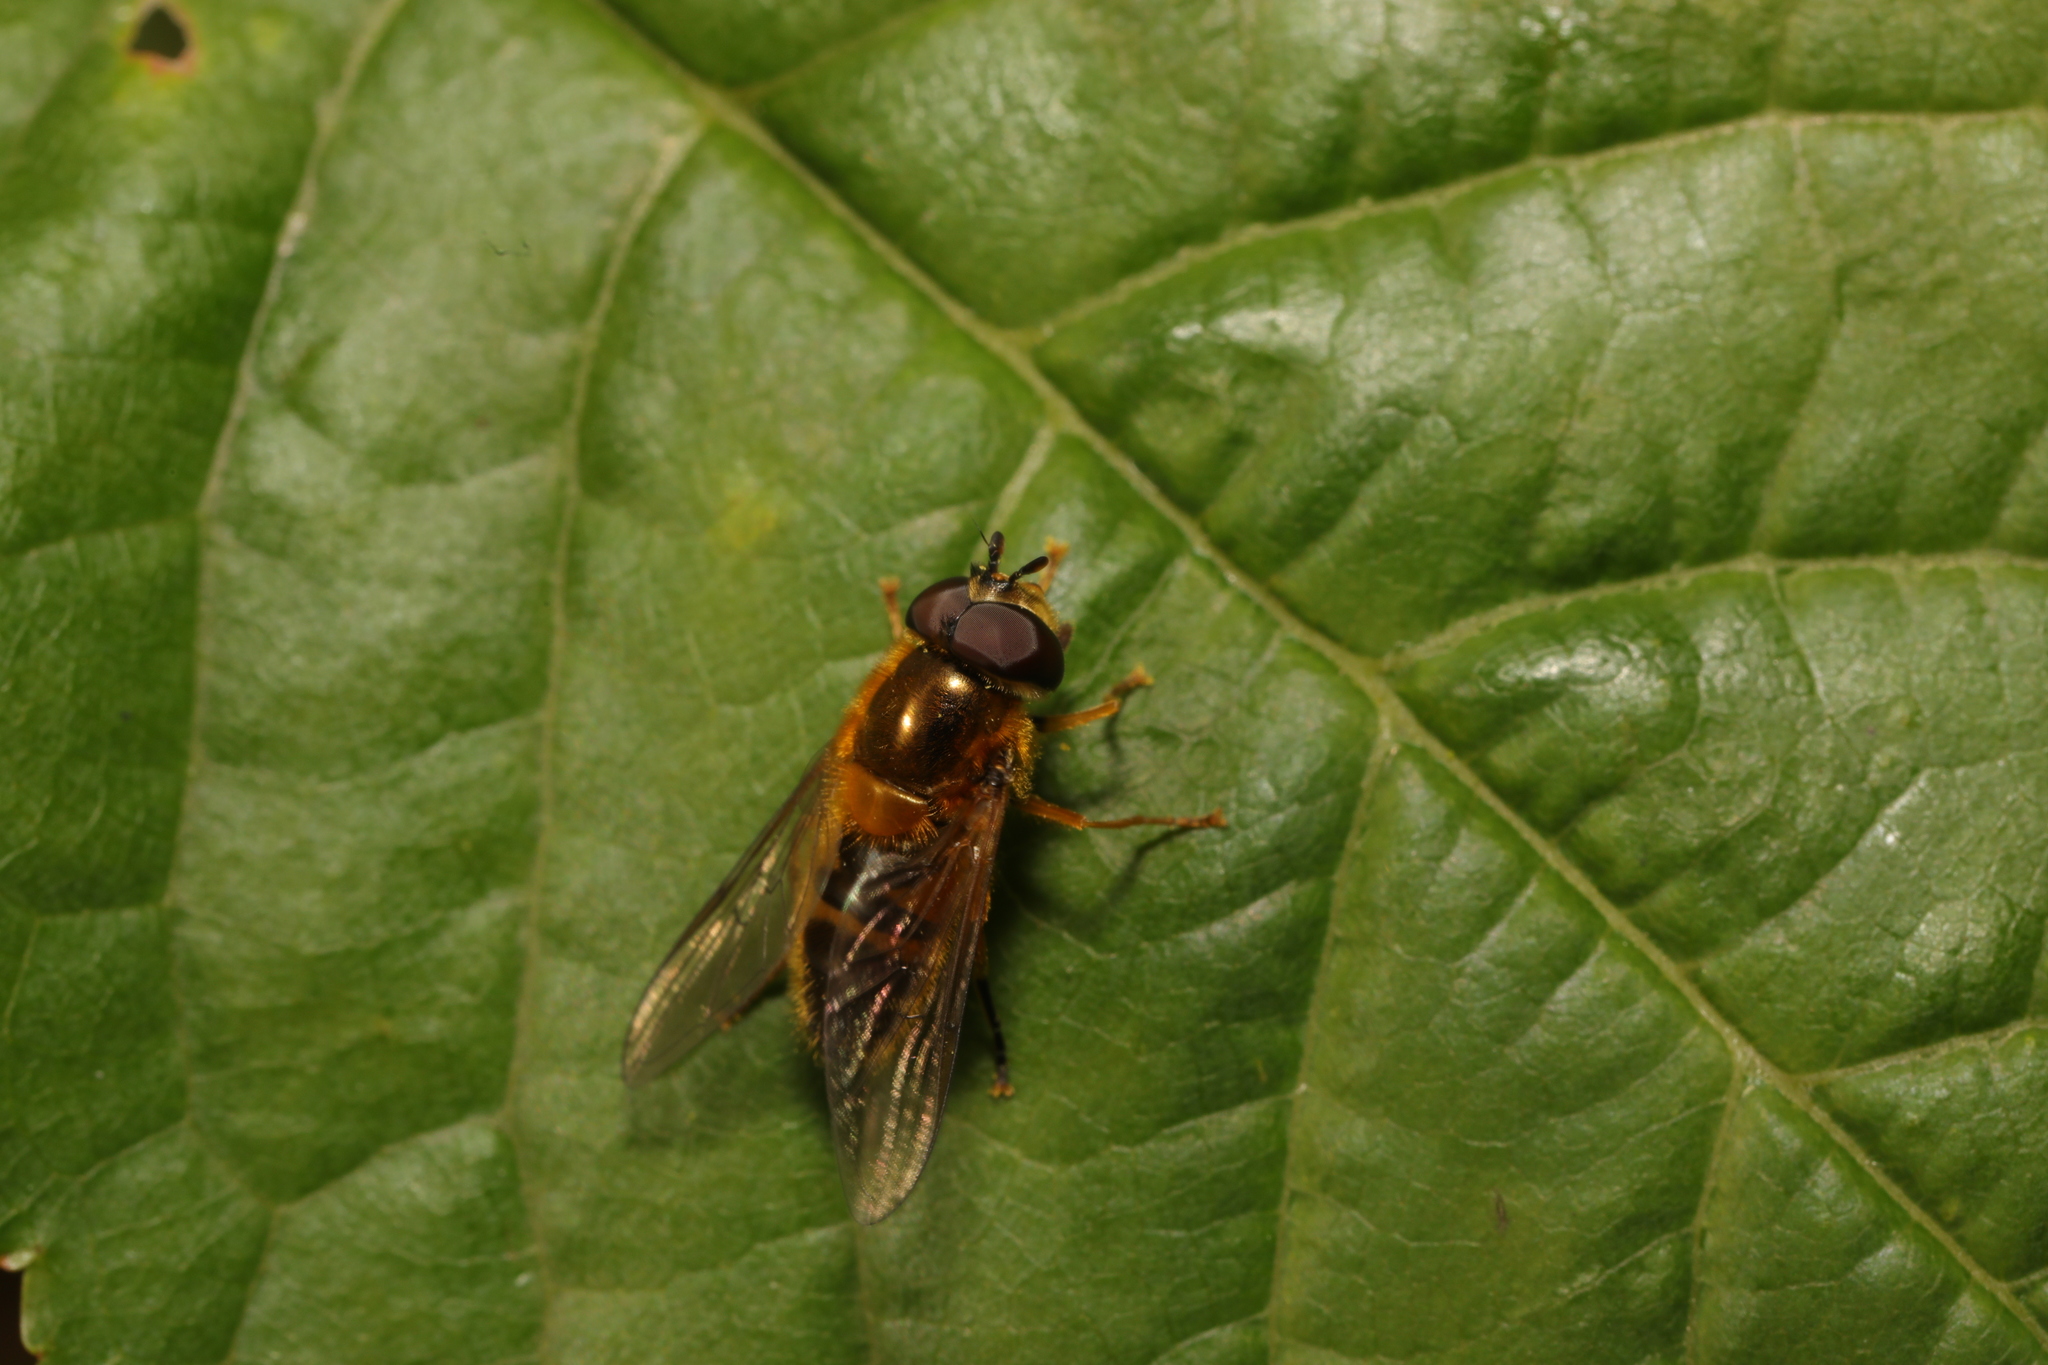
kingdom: Animalia
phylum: Arthropoda
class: Insecta
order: Diptera
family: Syrphidae
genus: Epistrophe
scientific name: Epistrophe eligans
